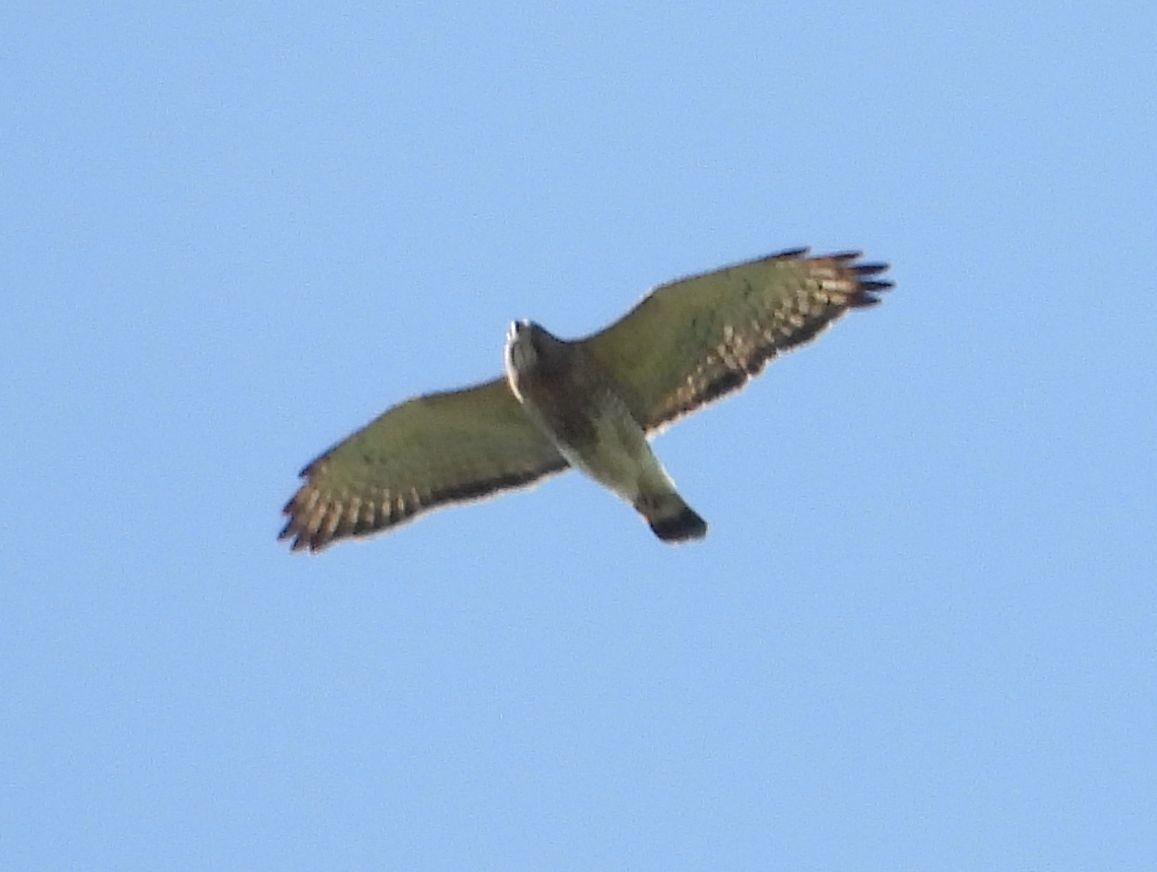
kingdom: Animalia
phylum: Chordata
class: Aves
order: Accipitriformes
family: Accipitridae
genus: Buteo
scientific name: Buteo platypterus
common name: Broad-winged hawk
